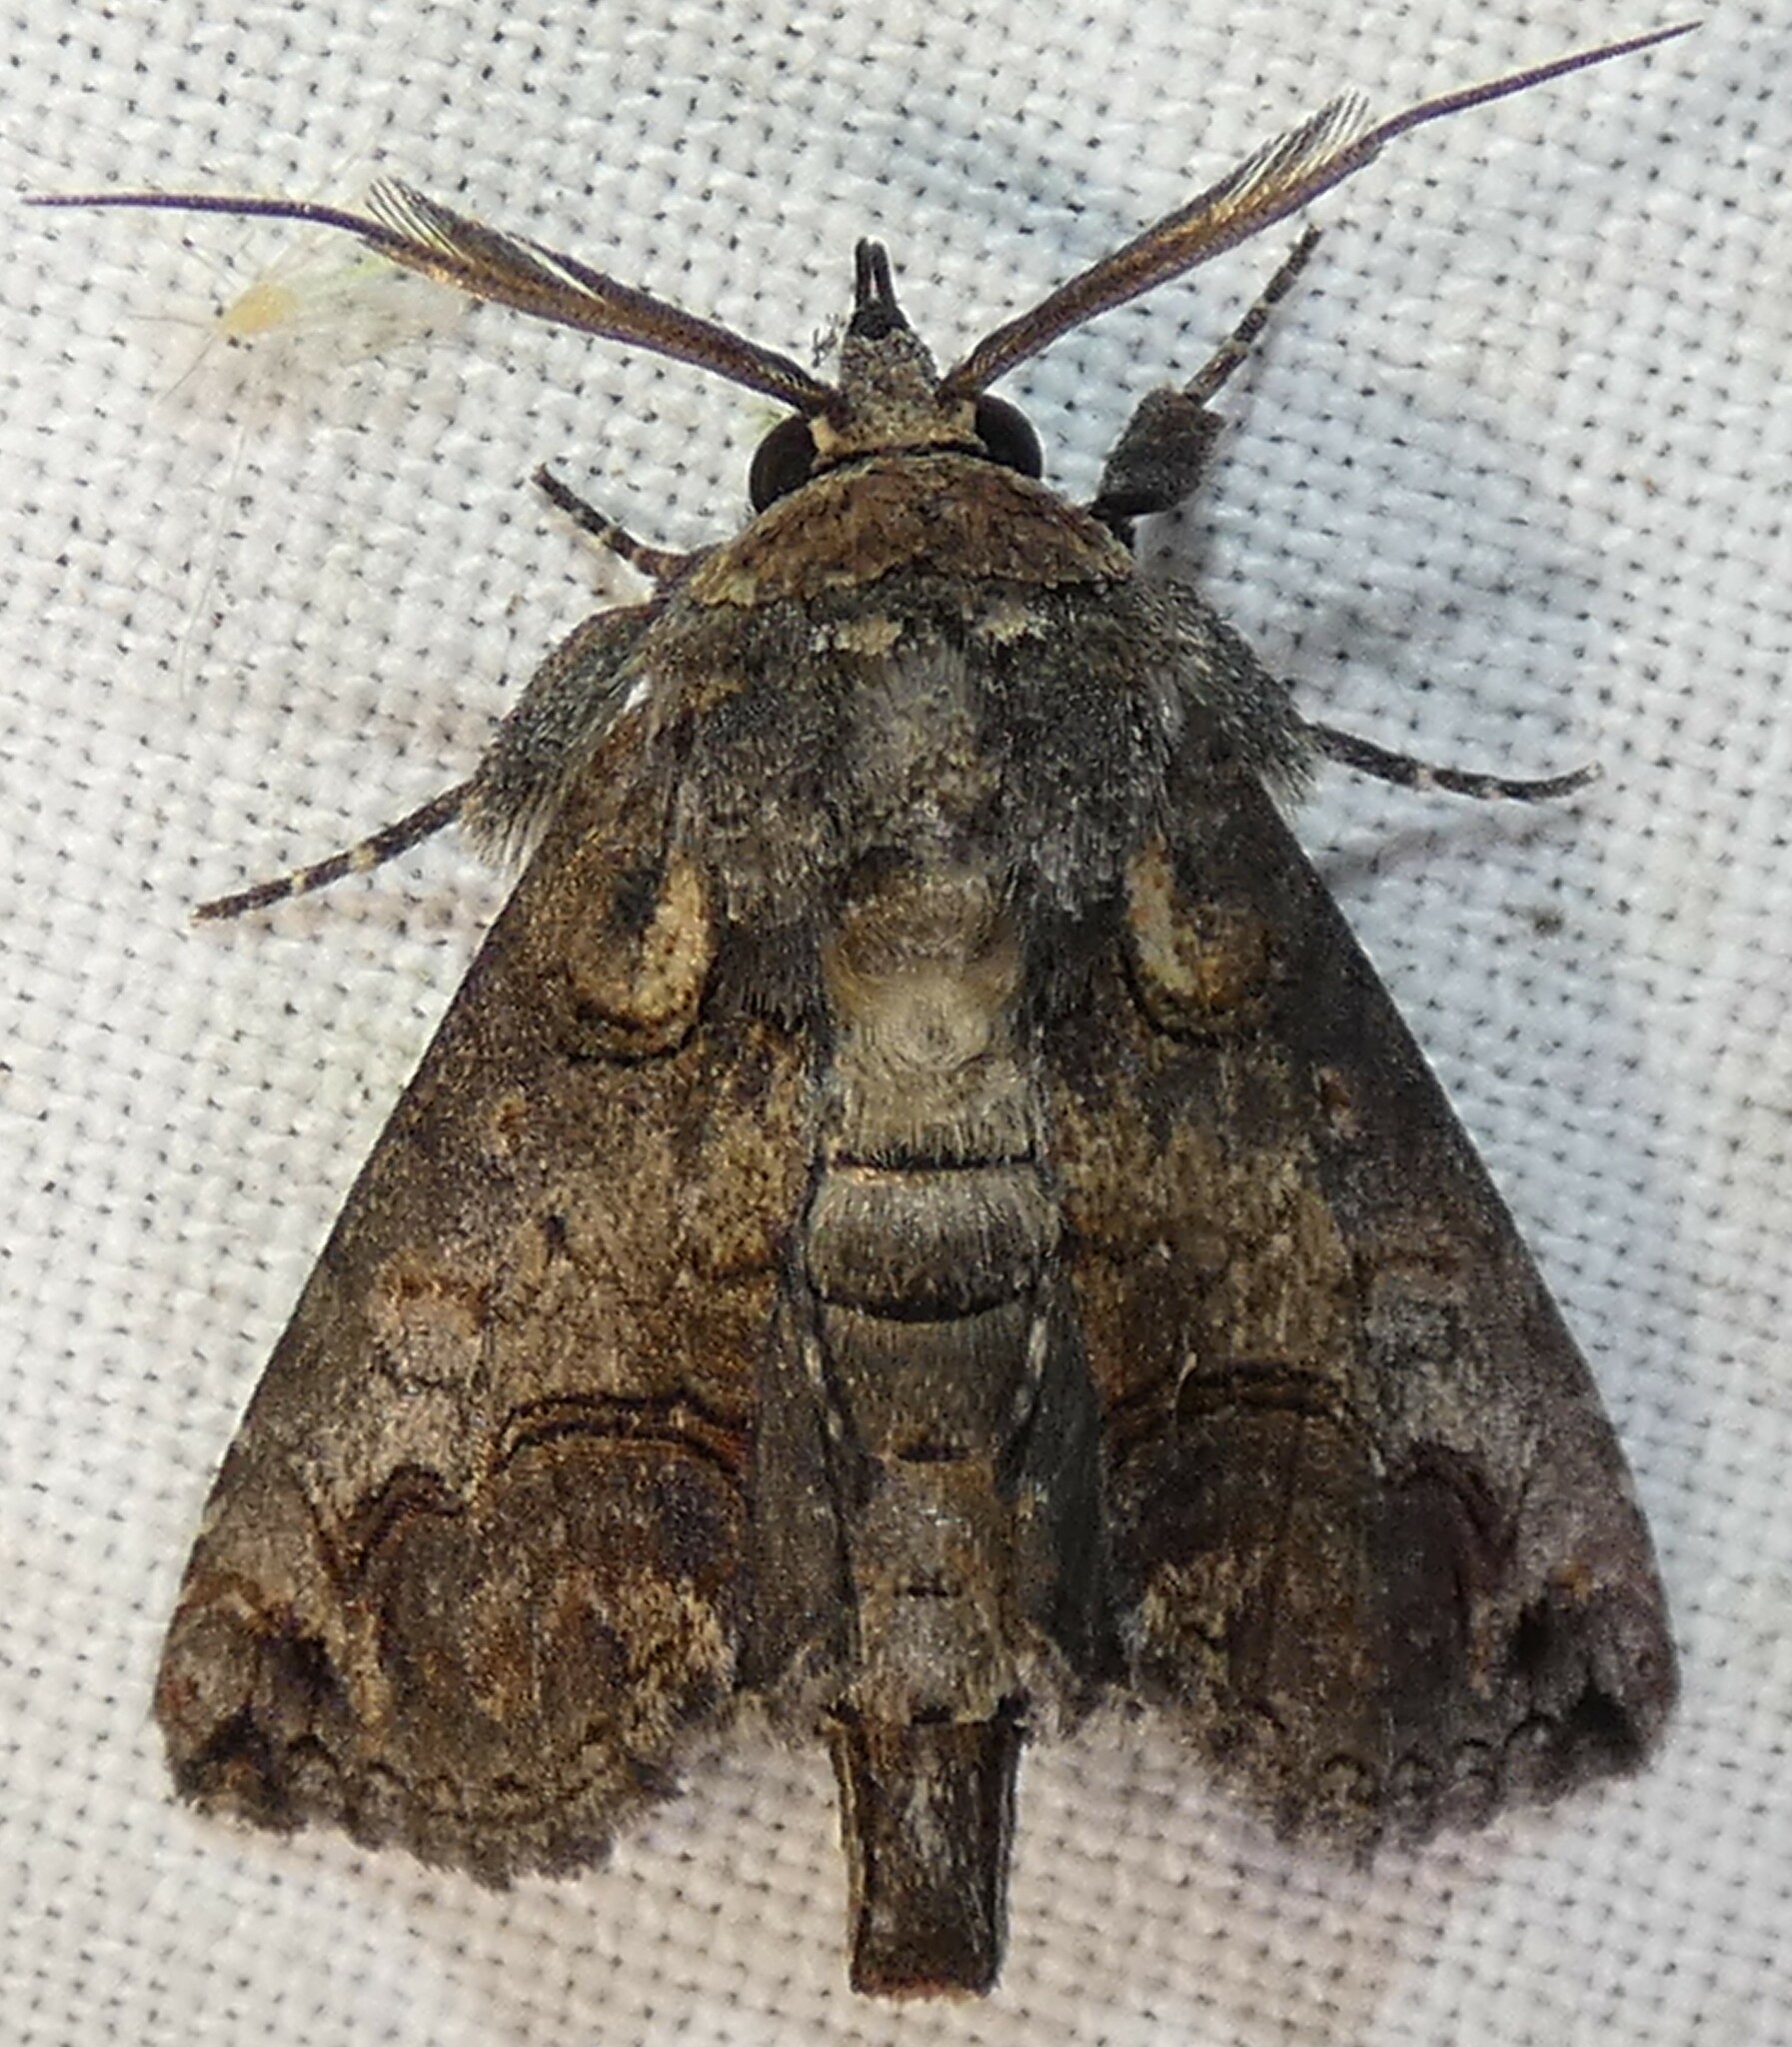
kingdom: Animalia
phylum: Arthropoda
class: Insecta
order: Lepidoptera
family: Euteliidae
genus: Paectes
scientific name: Paectes abrostoloides
